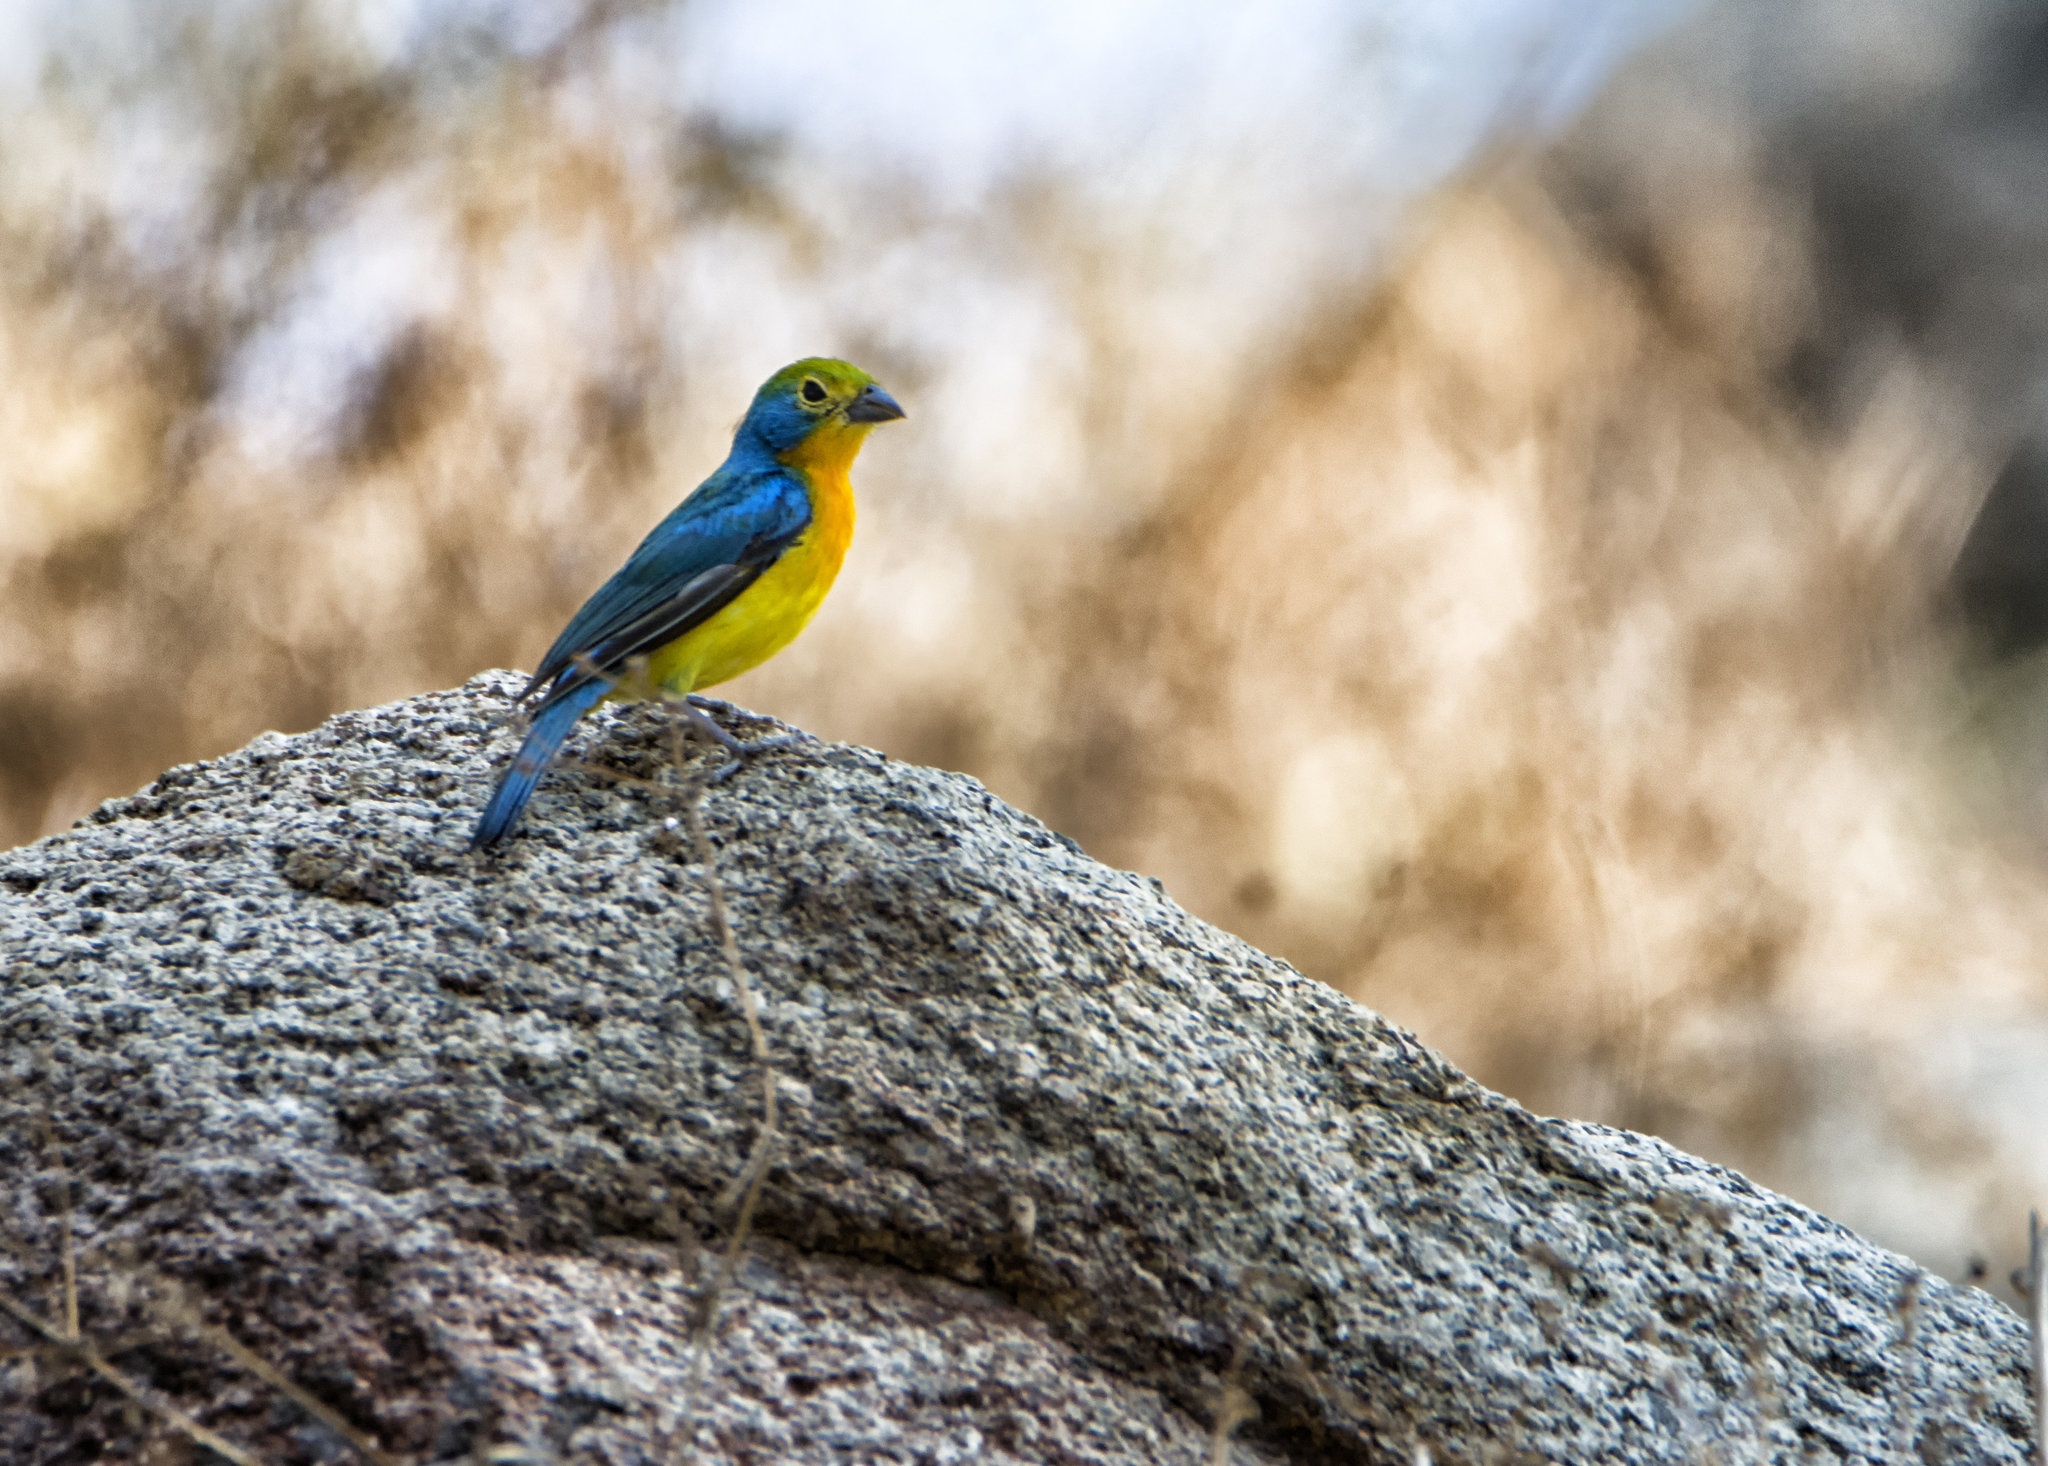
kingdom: Animalia
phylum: Chordata
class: Aves
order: Passeriformes
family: Cardinalidae
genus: Passerina
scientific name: Passerina leclancherii
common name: Orange-breasted bunting
